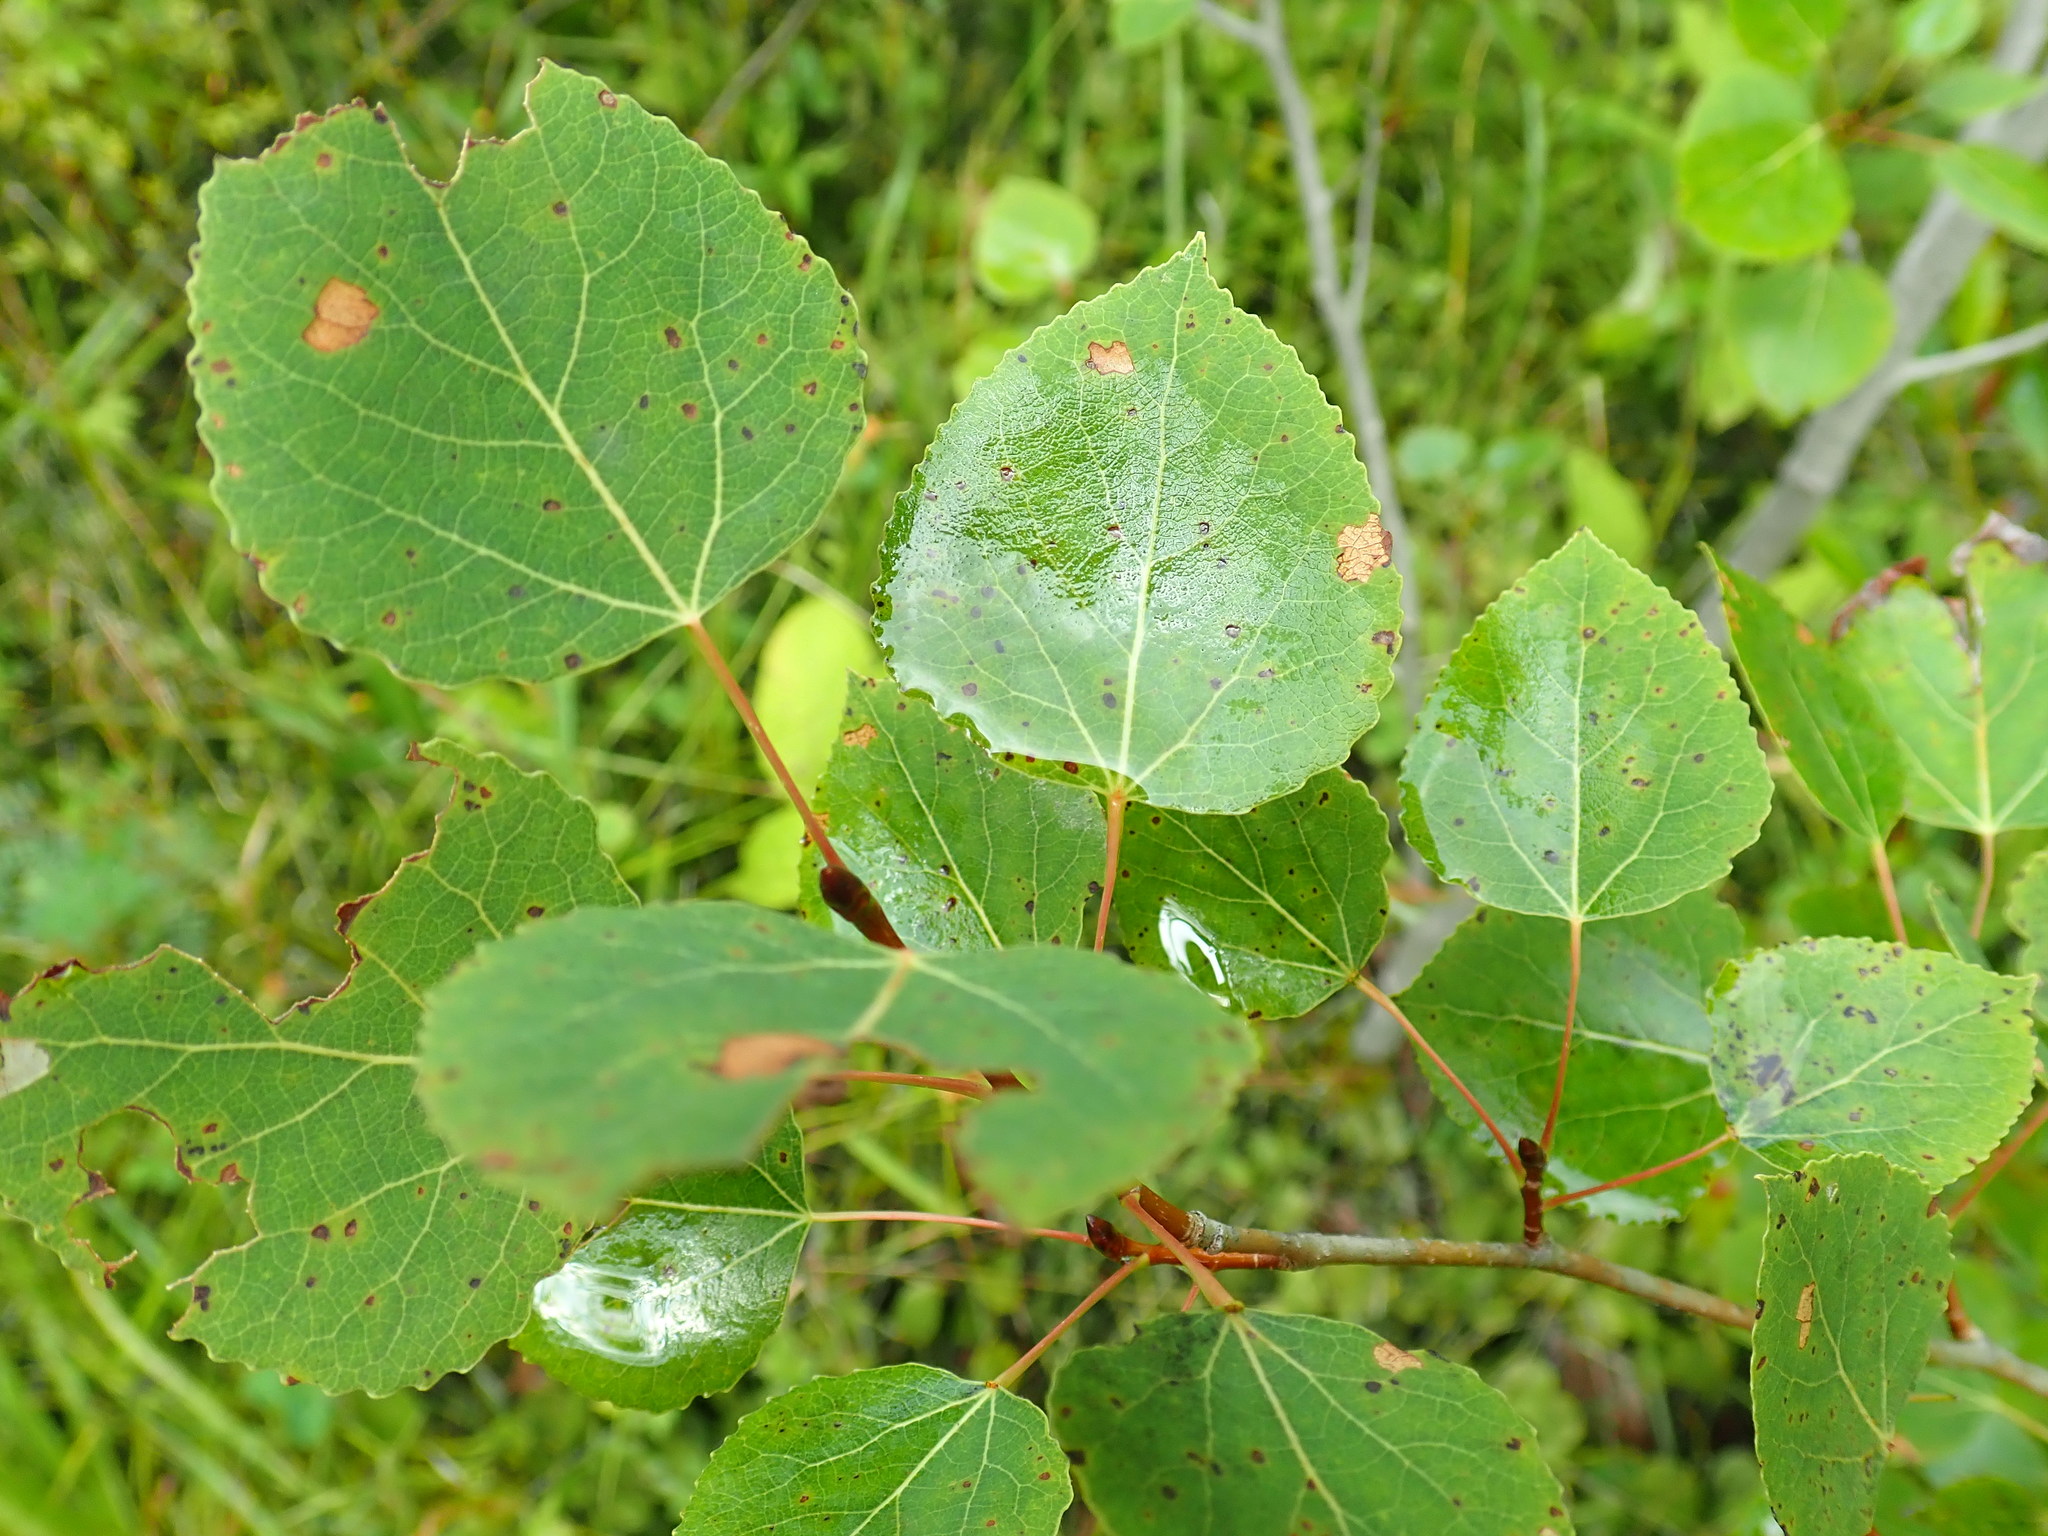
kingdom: Plantae
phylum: Tracheophyta
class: Magnoliopsida
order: Malpighiales
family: Salicaceae
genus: Populus
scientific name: Populus tremuloides
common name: Quaking aspen
